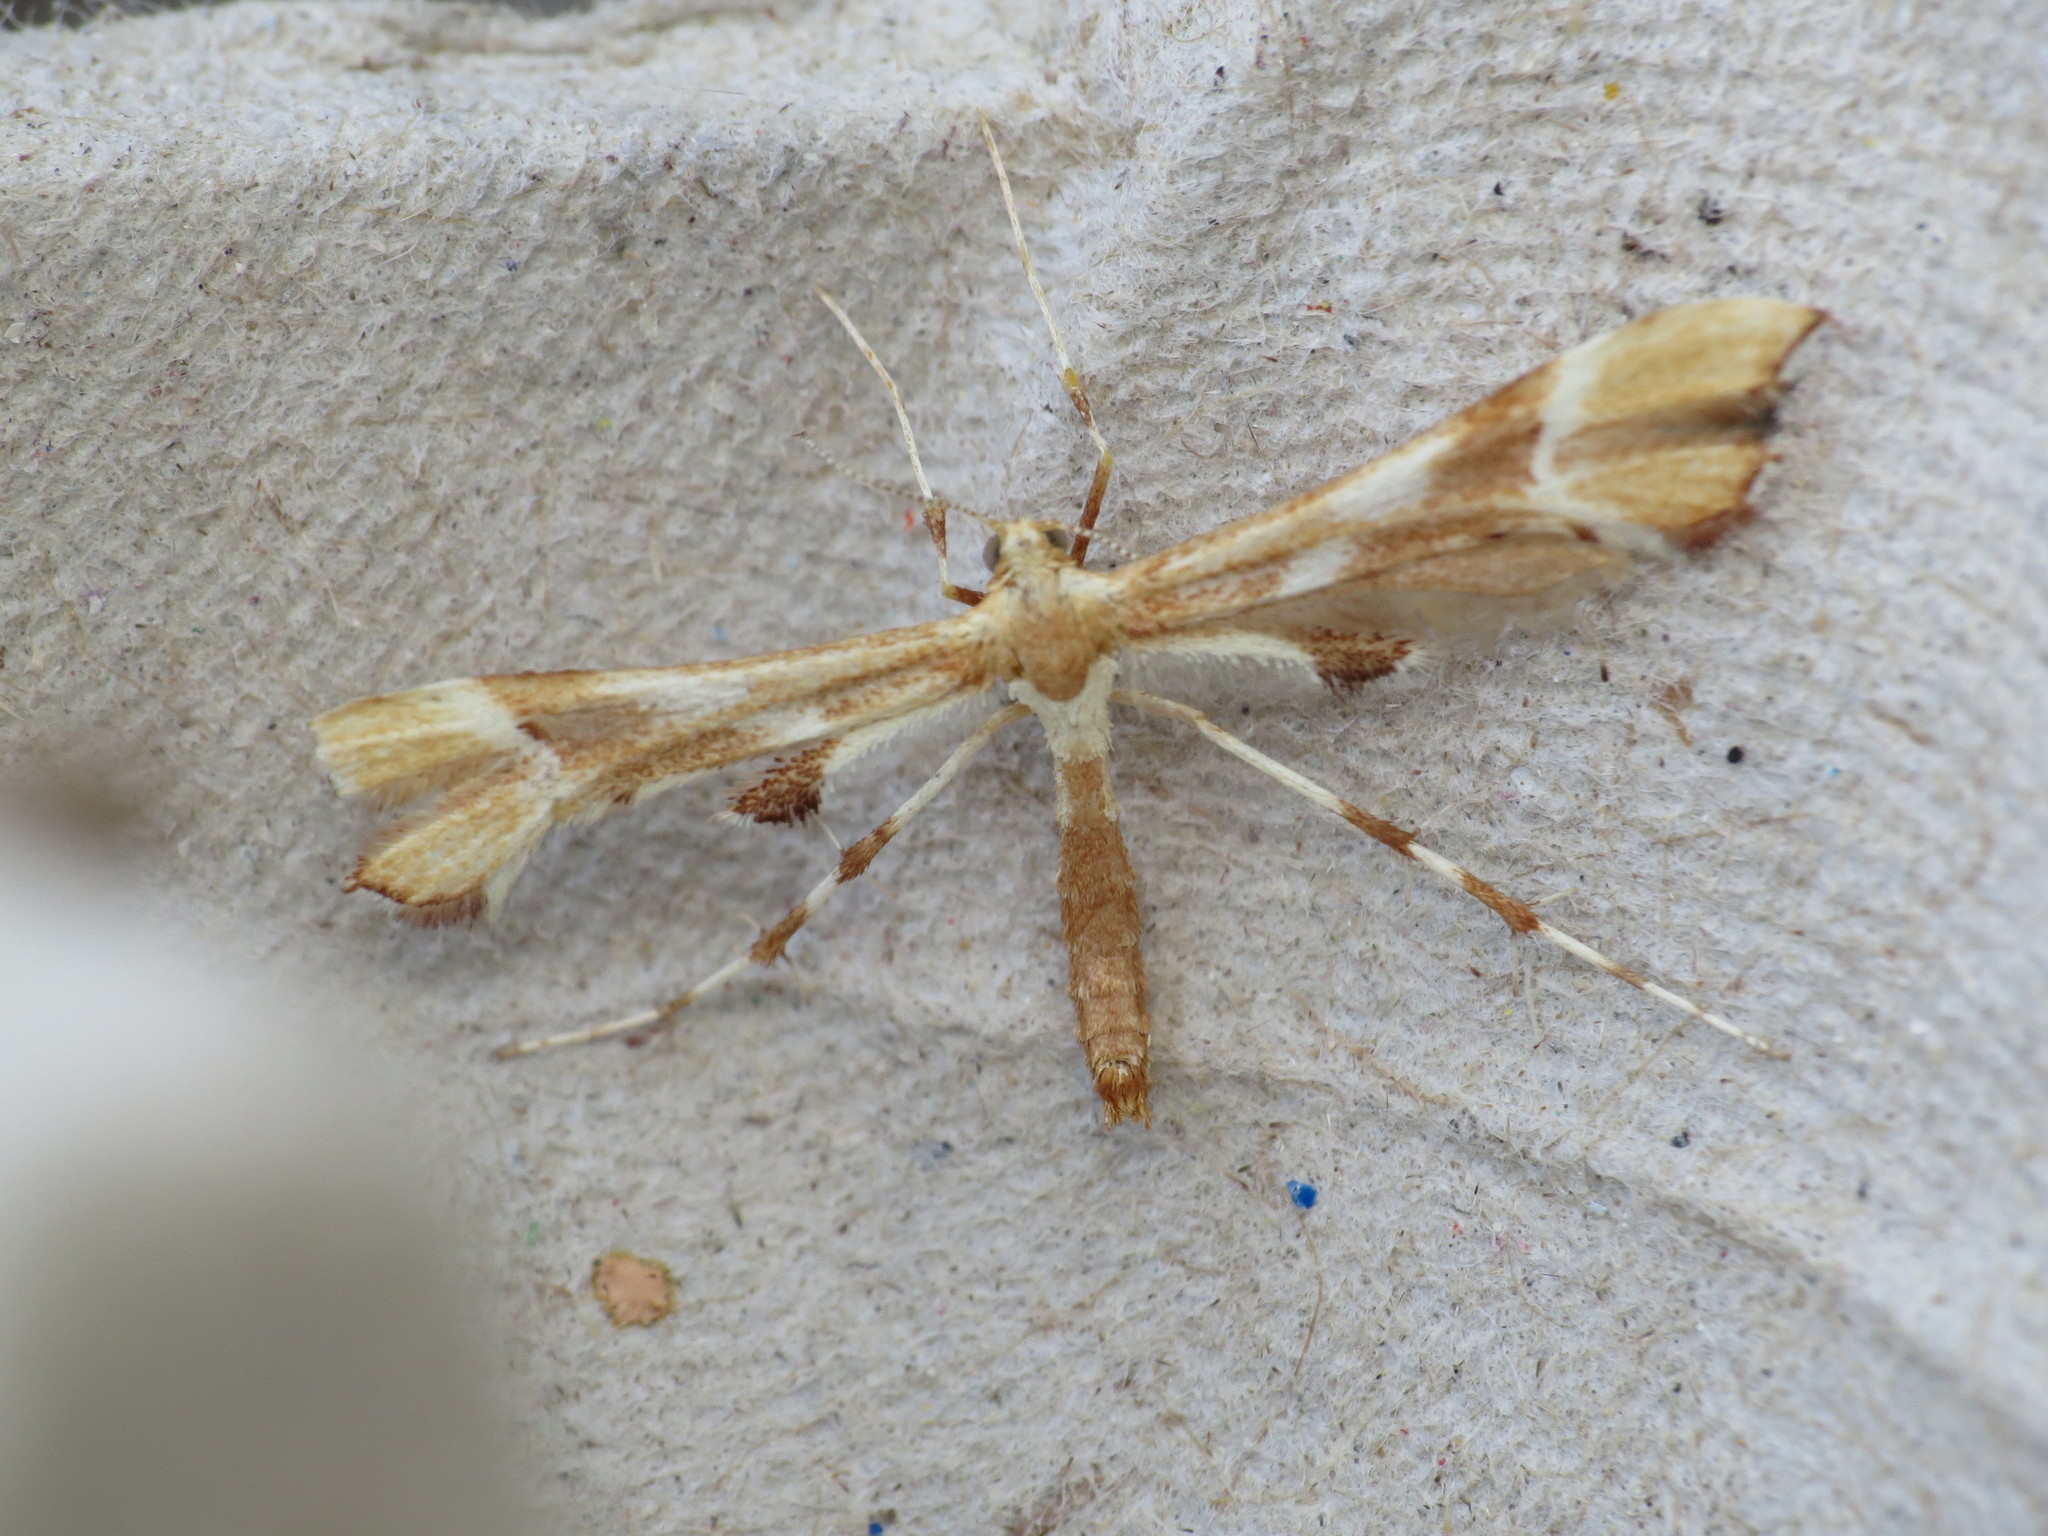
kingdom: Animalia
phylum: Arthropoda
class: Insecta
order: Lepidoptera
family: Pterophoridae
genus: Cnaemidophorus
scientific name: Cnaemidophorus rhododactyla
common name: Rose plume
